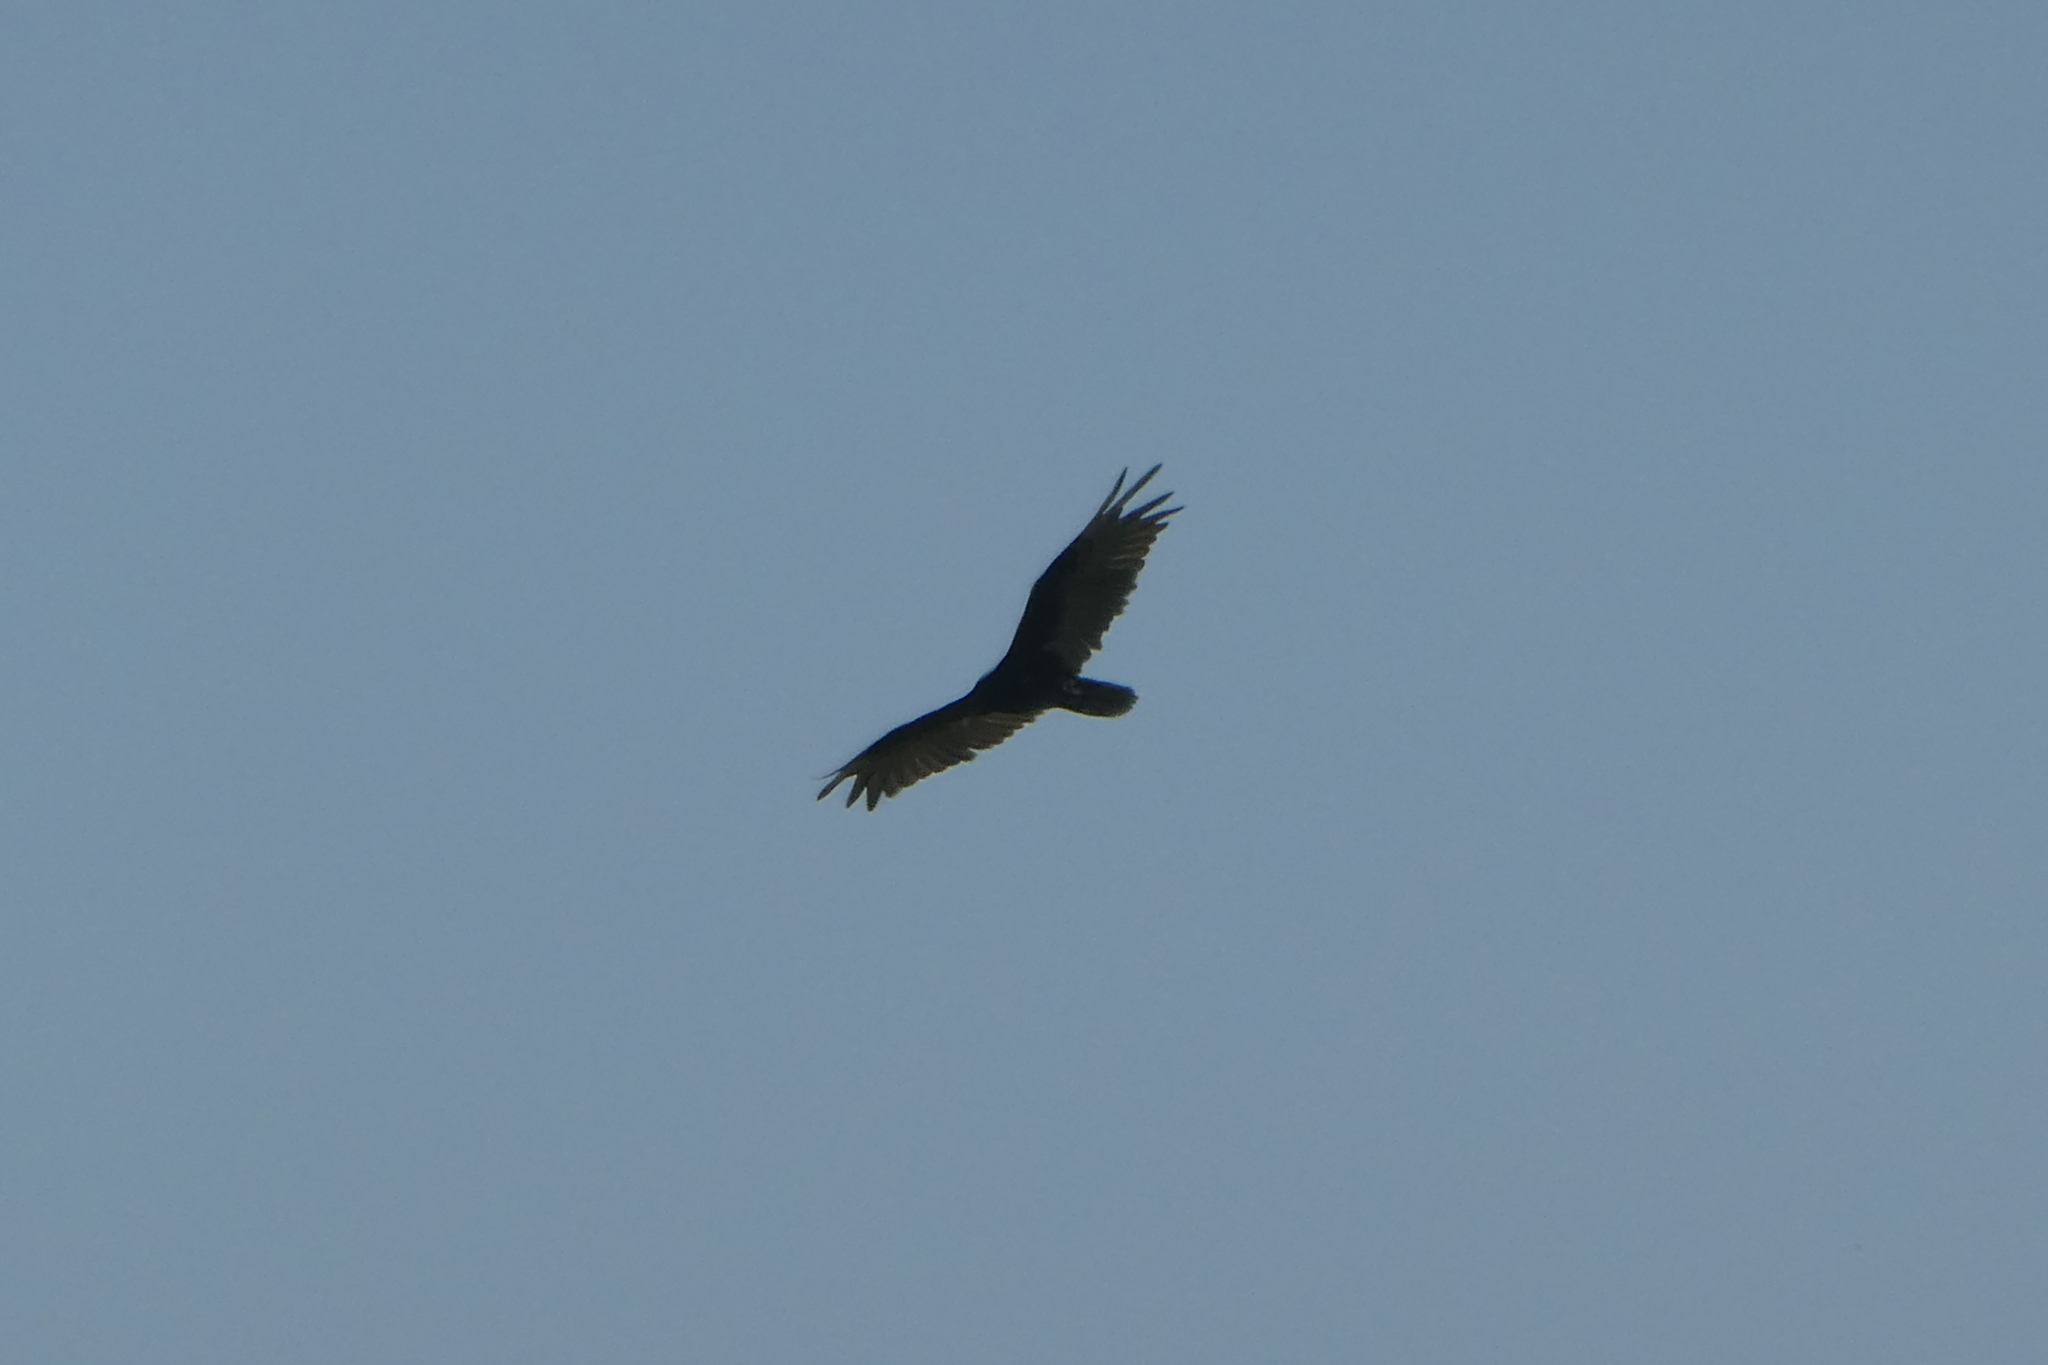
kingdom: Animalia
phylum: Chordata
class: Aves
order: Accipitriformes
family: Cathartidae
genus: Cathartes
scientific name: Cathartes aura
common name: Turkey vulture
